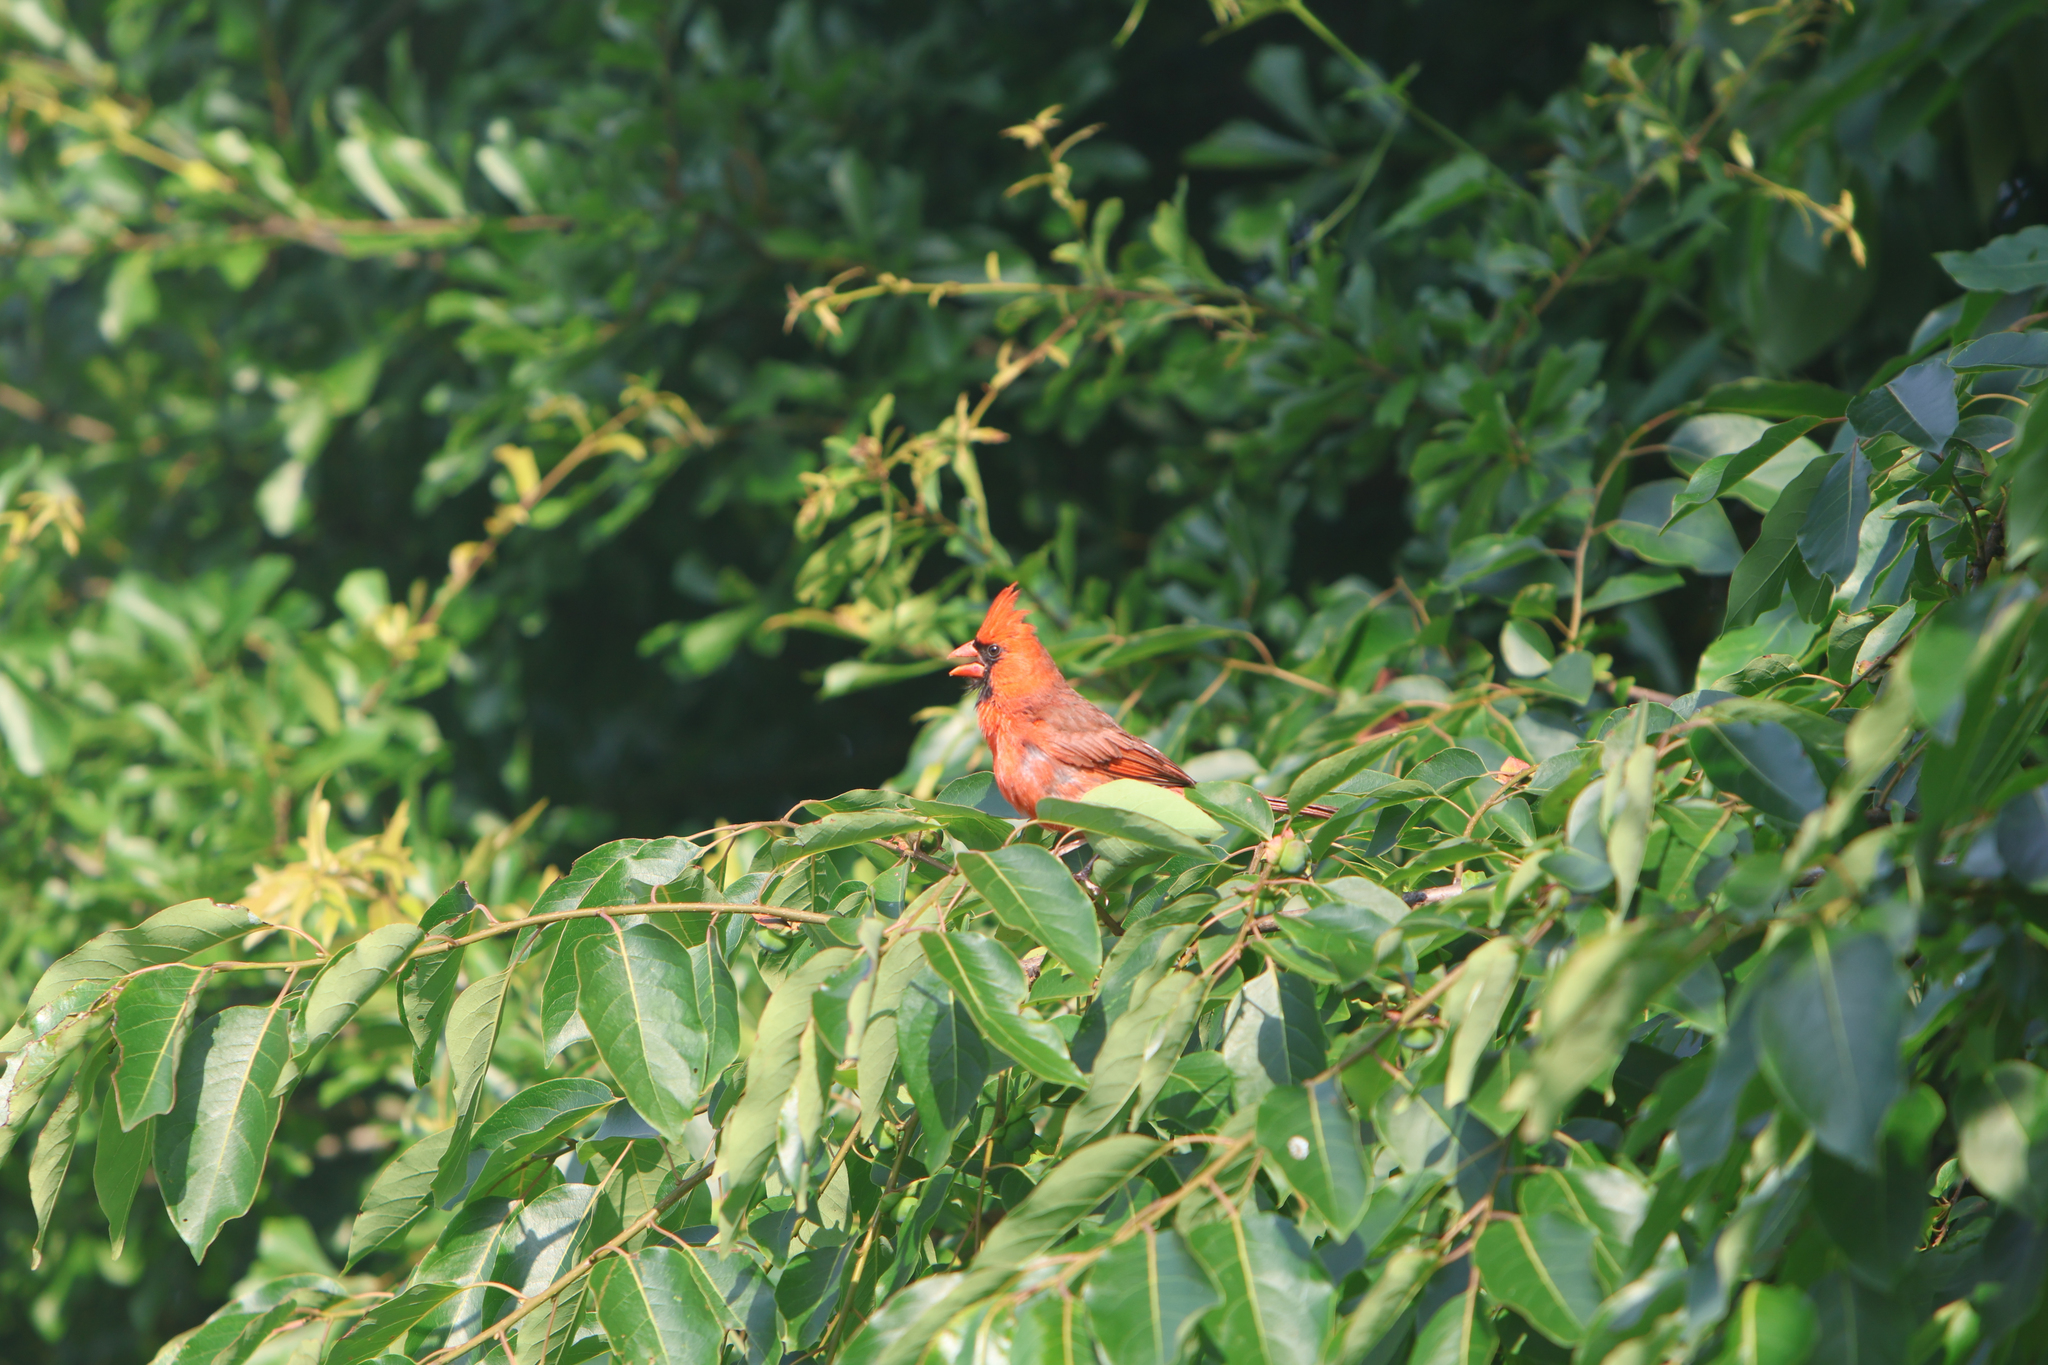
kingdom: Animalia
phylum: Chordata
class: Aves
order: Passeriformes
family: Cardinalidae
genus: Cardinalis
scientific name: Cardinalis cardinalis
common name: Northern cardinal
